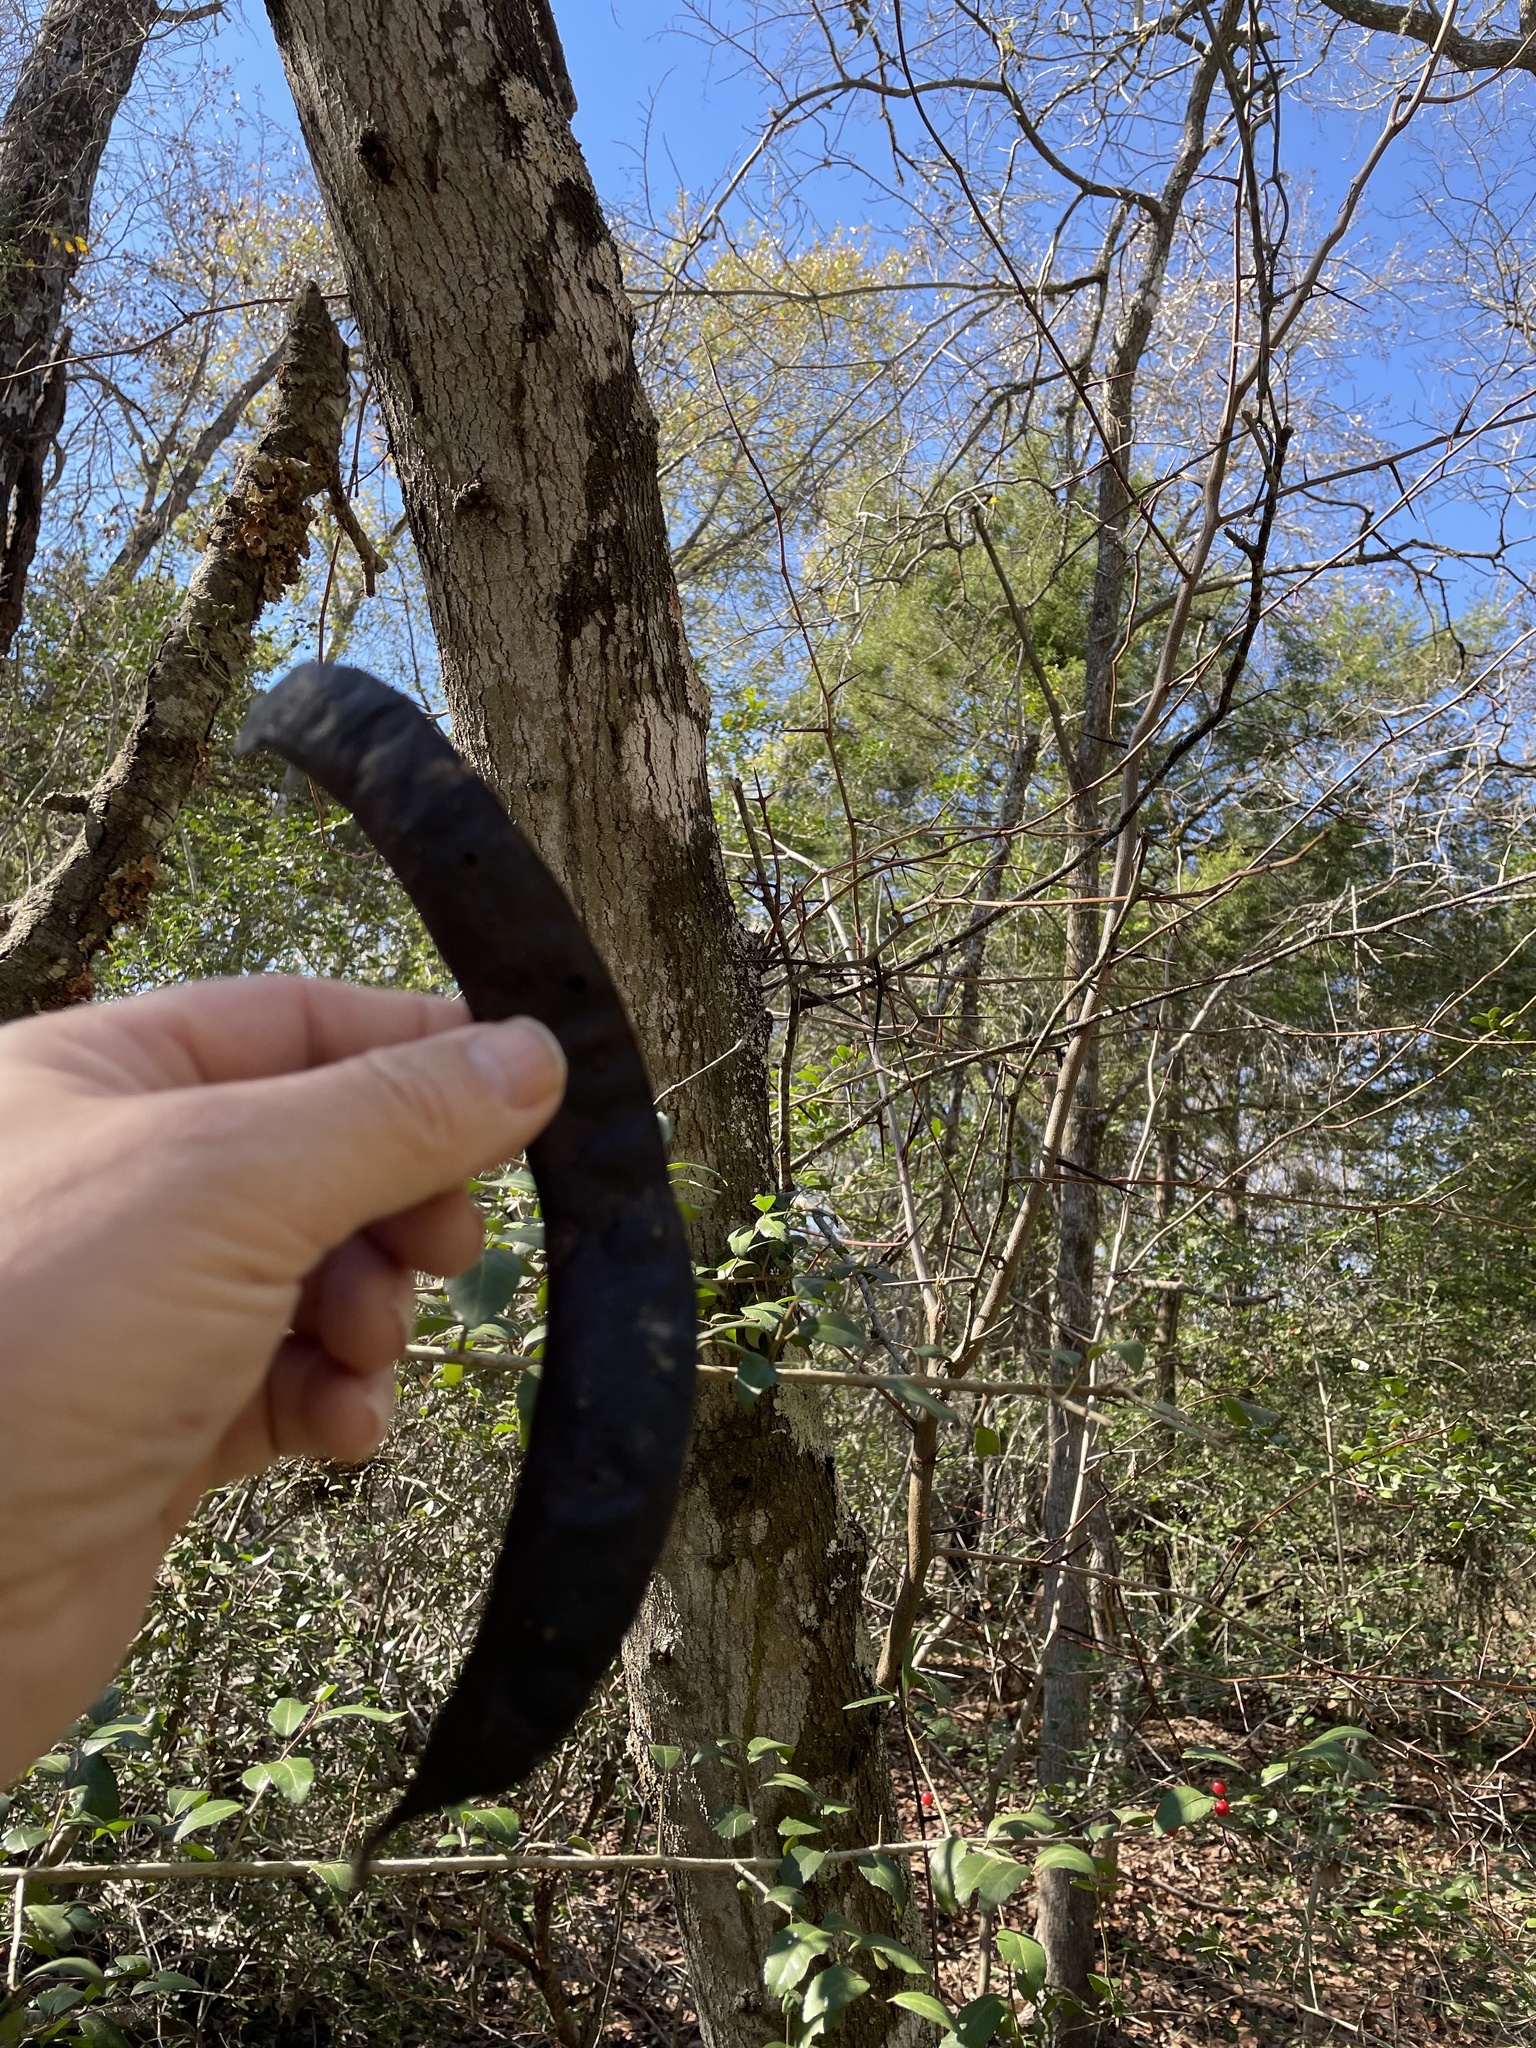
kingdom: Plantae
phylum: Tracheophyta
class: Magnoliopsida
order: Fabales
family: Fabaceae
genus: Gleditsia
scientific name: Gleditsia triacanthos
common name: Common honeylocust
